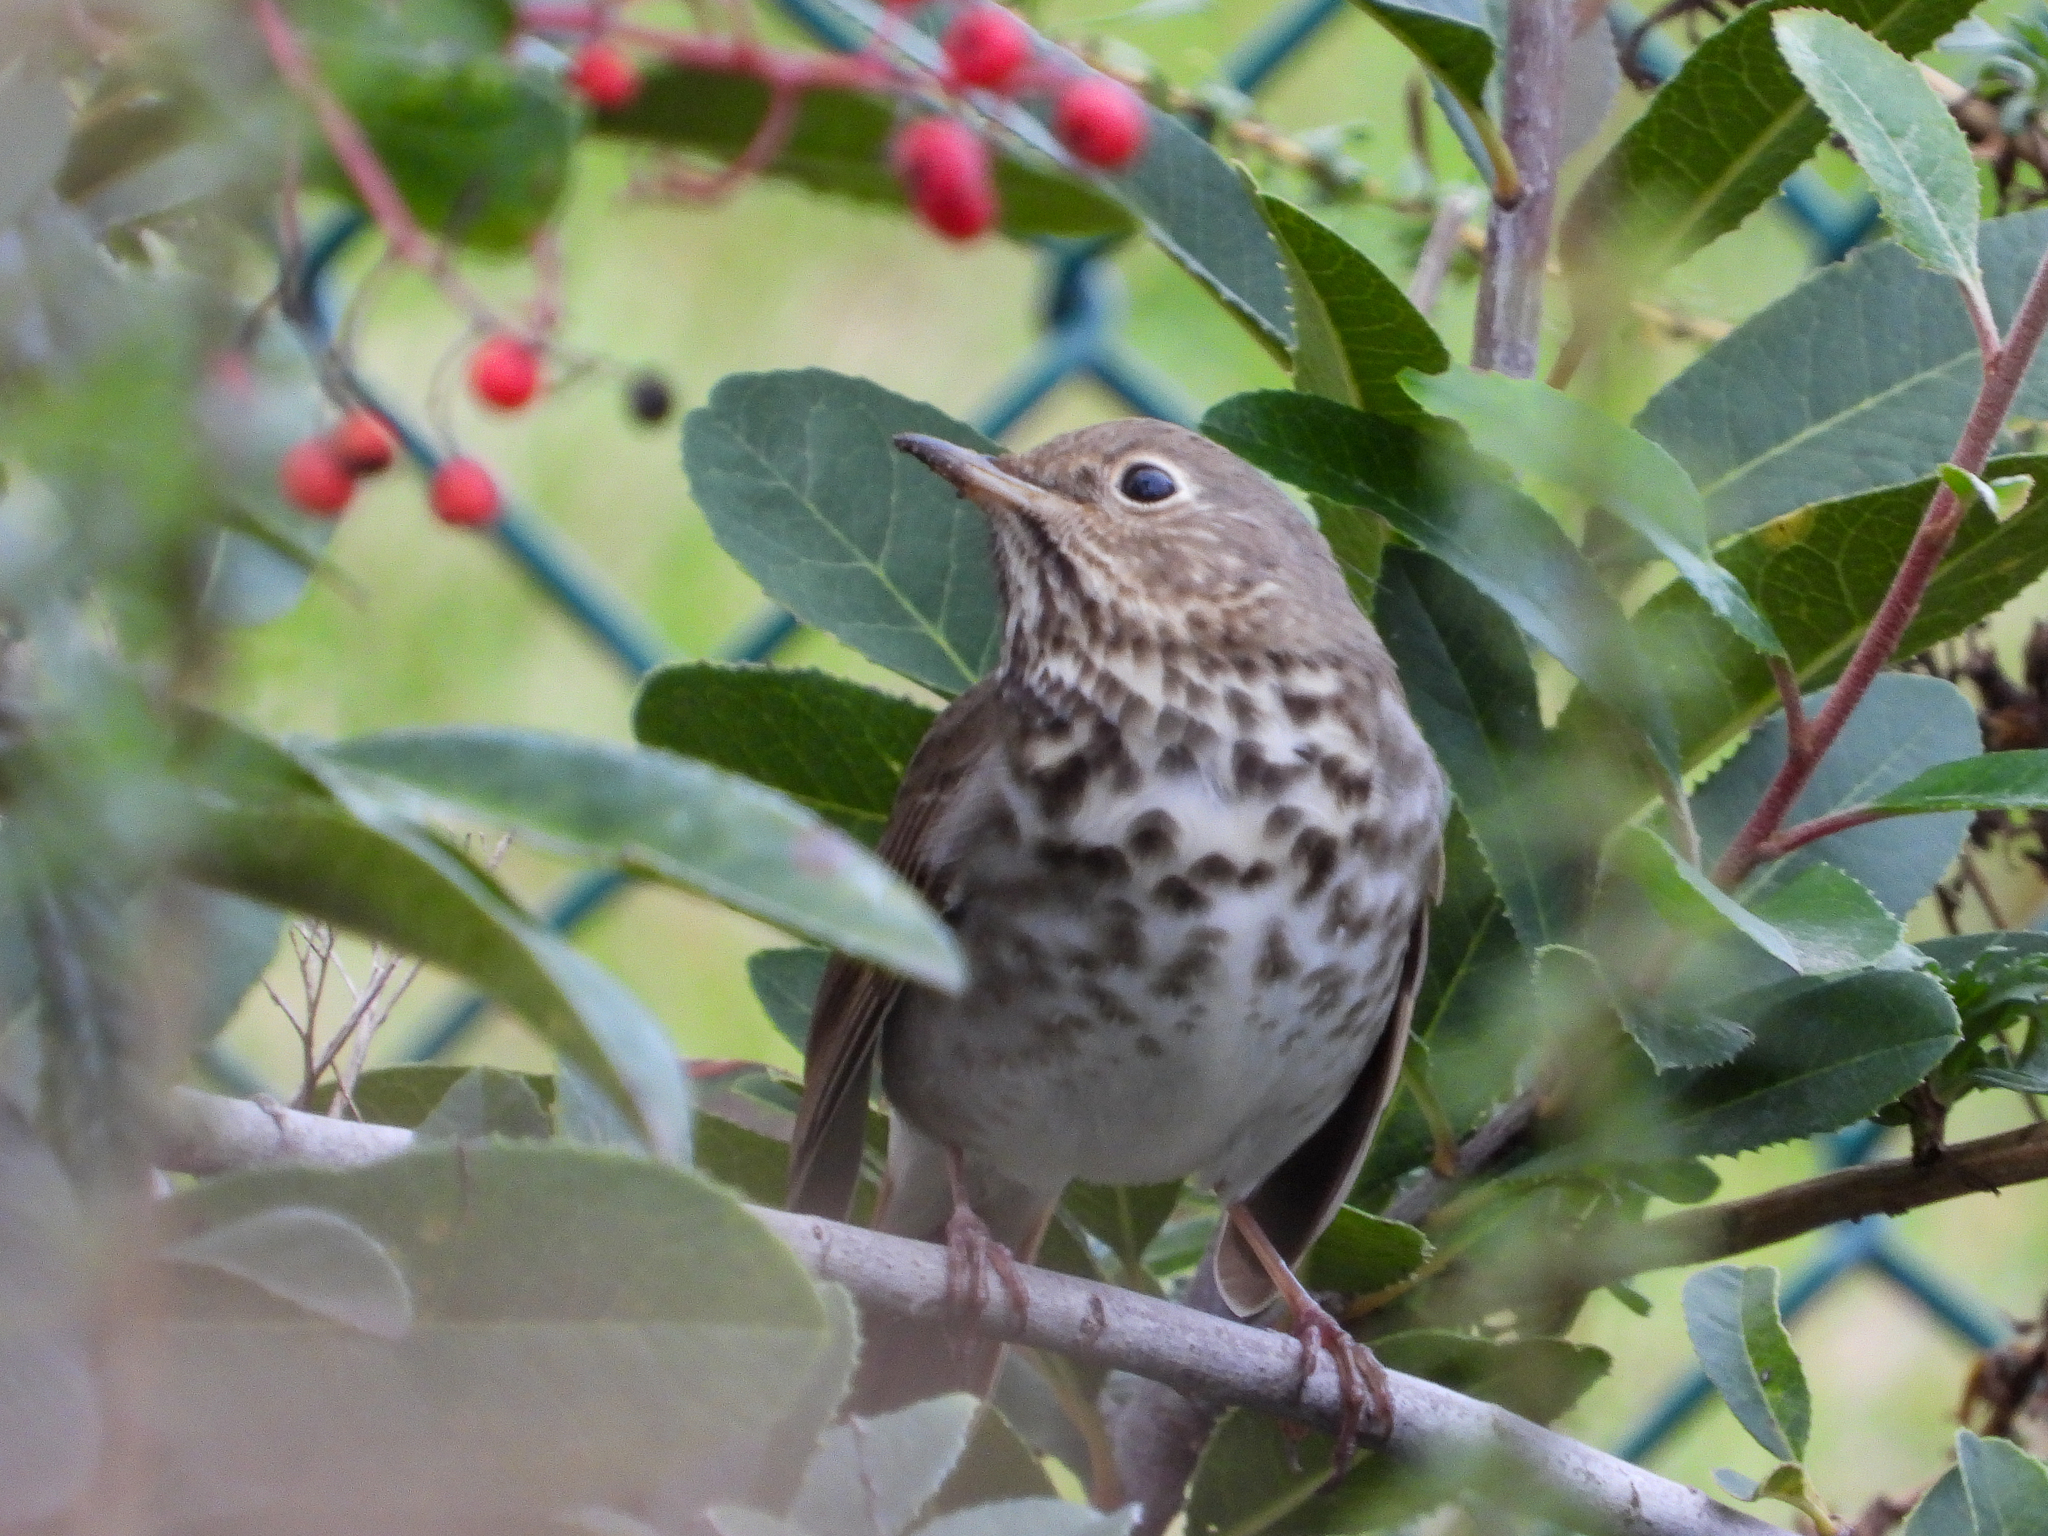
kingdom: Animalia
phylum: Chordata
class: Aves
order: Passeriformes
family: Turdidae
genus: Catharus
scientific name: Catharus guttatus
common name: Hermit thrush
